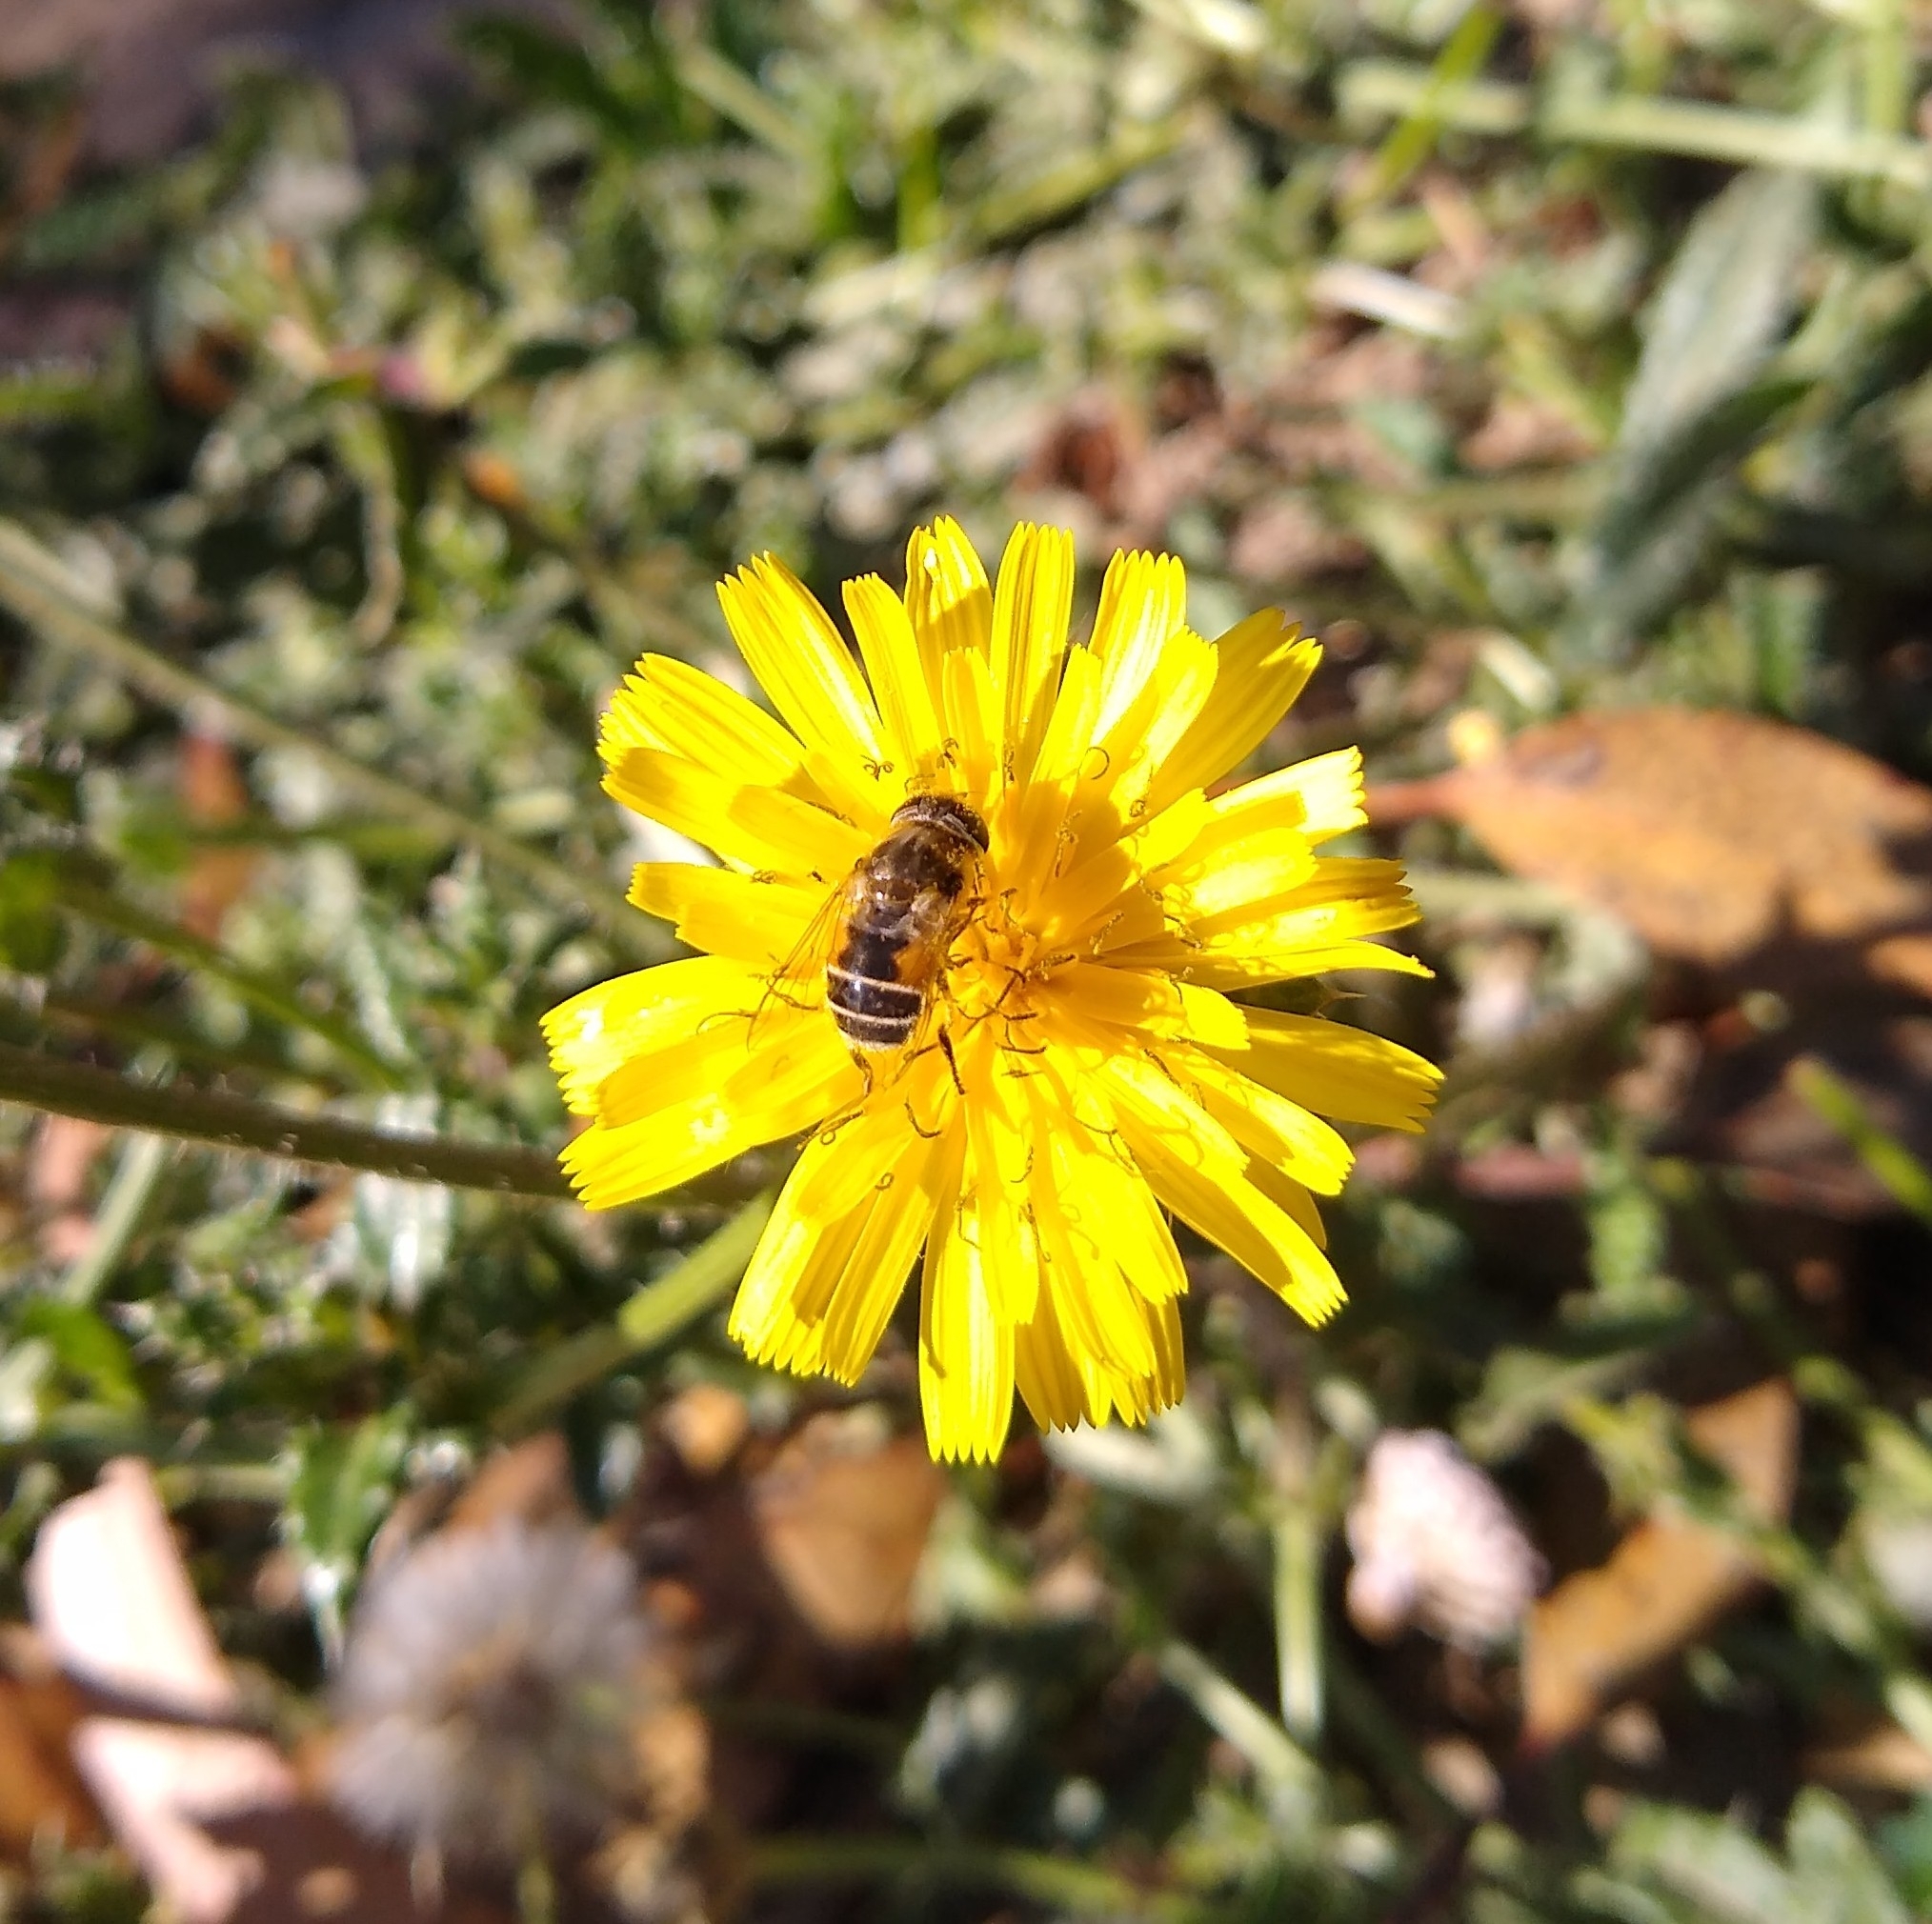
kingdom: Animalia
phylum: Arthropoda
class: Insecta
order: Diptera
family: Syrphidae
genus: Eristalis
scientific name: Eristalis arbustorum
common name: Hover fly
